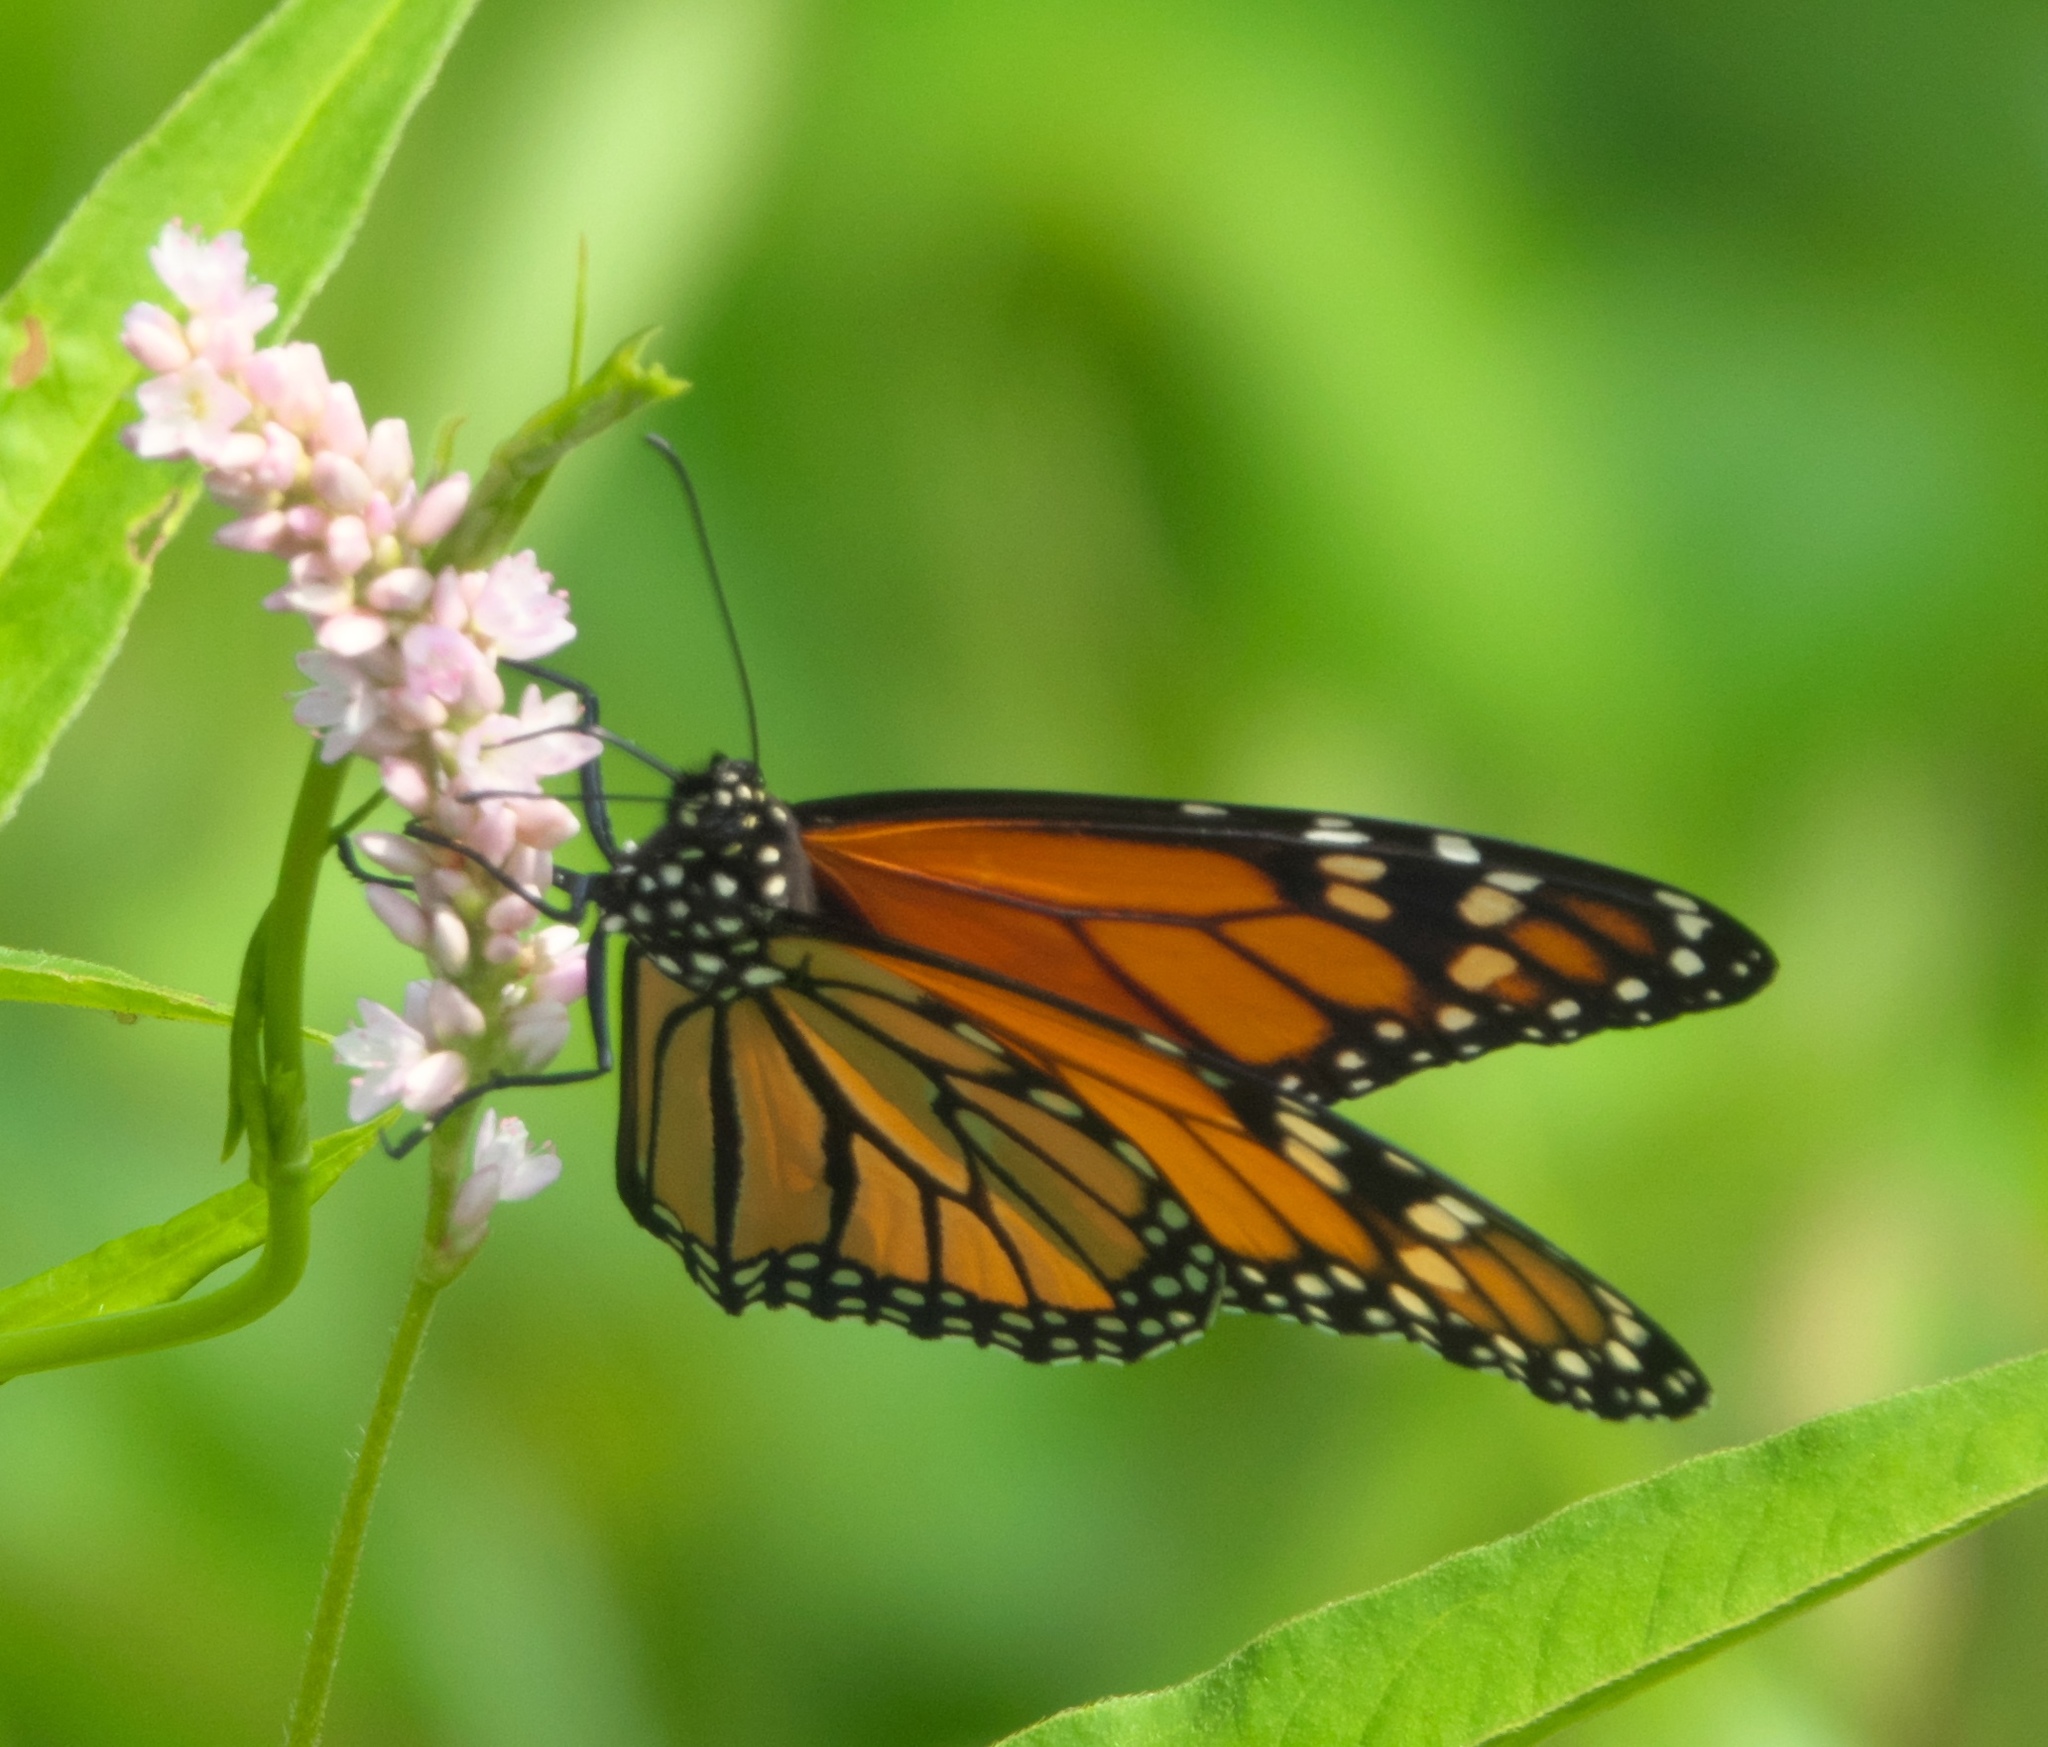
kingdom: Animalia
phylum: Arthropoda
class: Insecta
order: Lepidoptera
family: Nymphalidae
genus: Danaus
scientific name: Danaus plexippus
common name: Monarch
